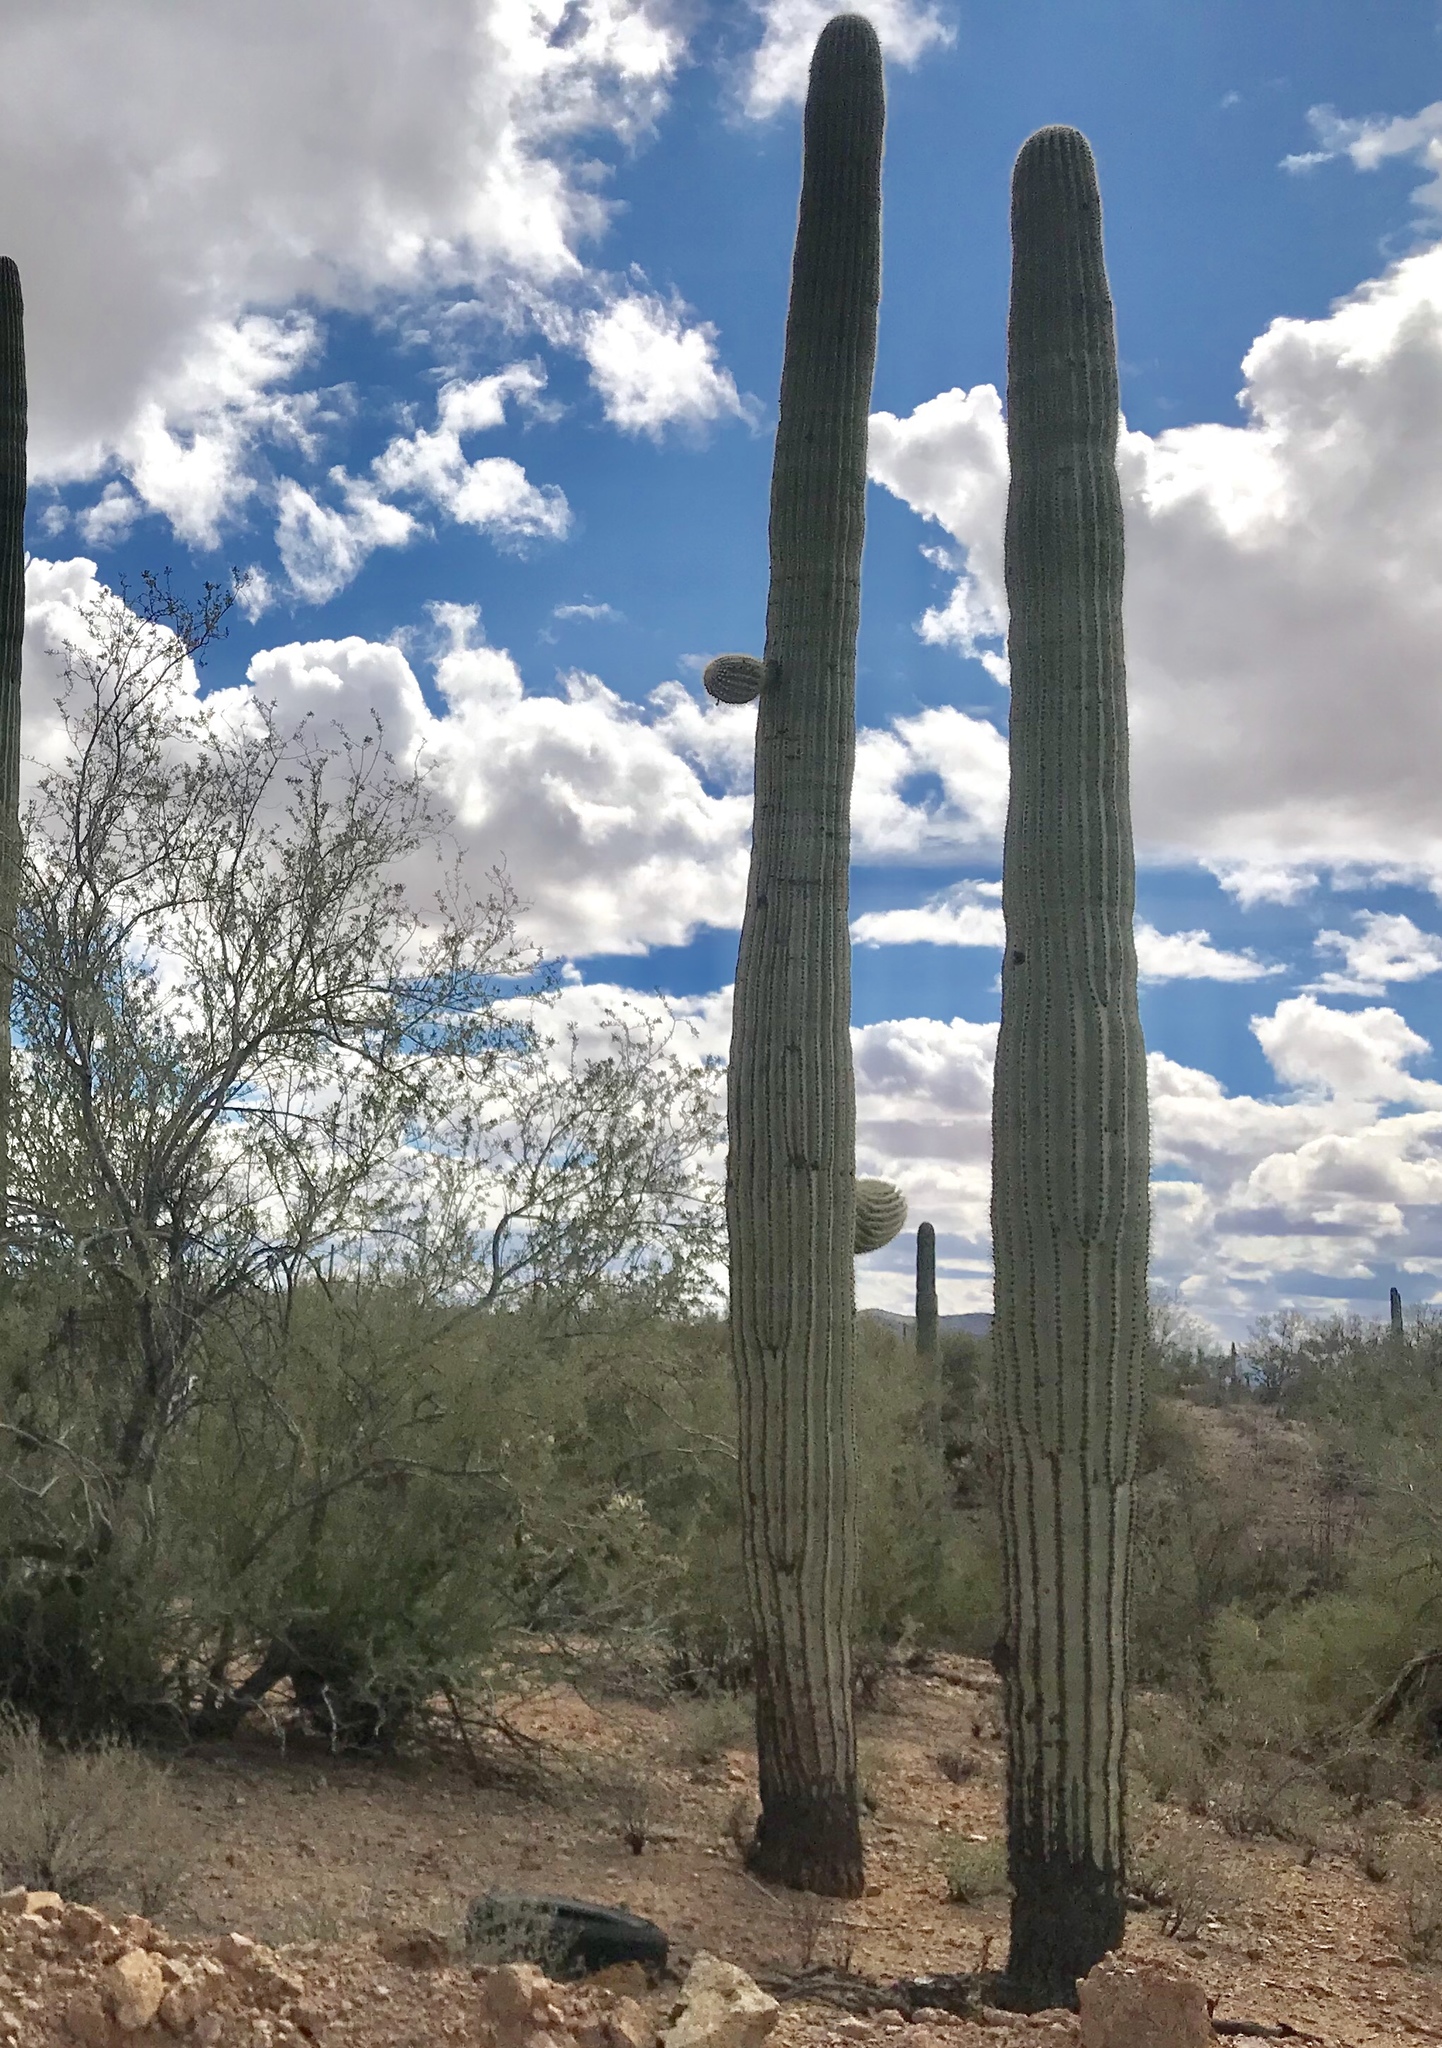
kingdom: Plantae
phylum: Tracheophyta
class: Magnoliopsida
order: Caryophyllales
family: Cactaceae
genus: Carnegiea
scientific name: Carnegiea gigantea
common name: Saguaro
